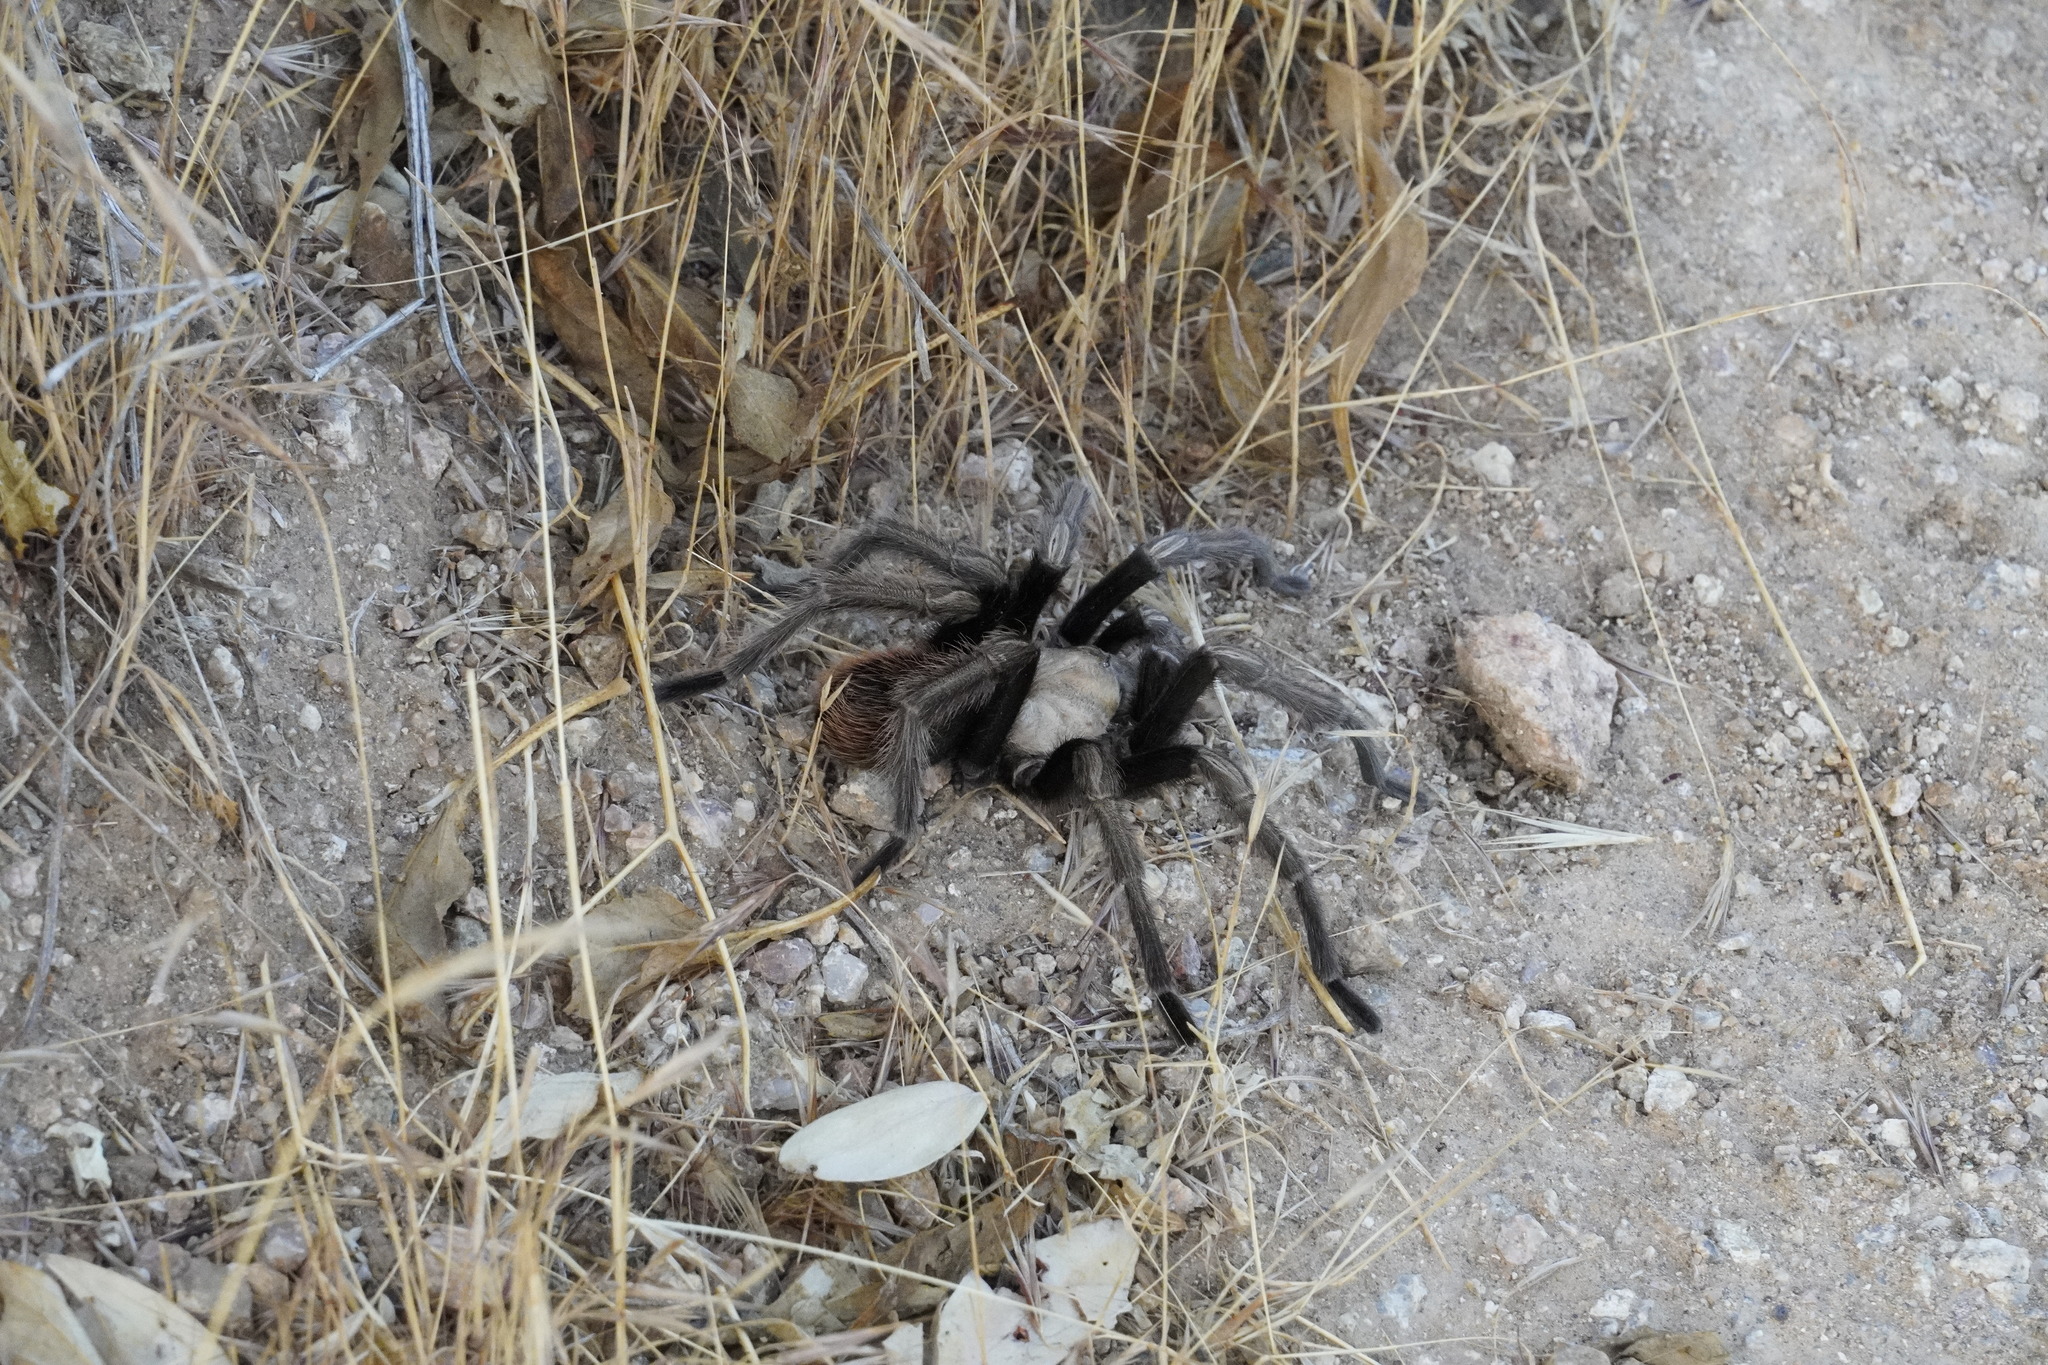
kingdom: Animalia
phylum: Arthropoda
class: Arachnida
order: Araneae
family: Theraphosidae
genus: Aphonopelma
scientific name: Aphonopelma chalcodes
